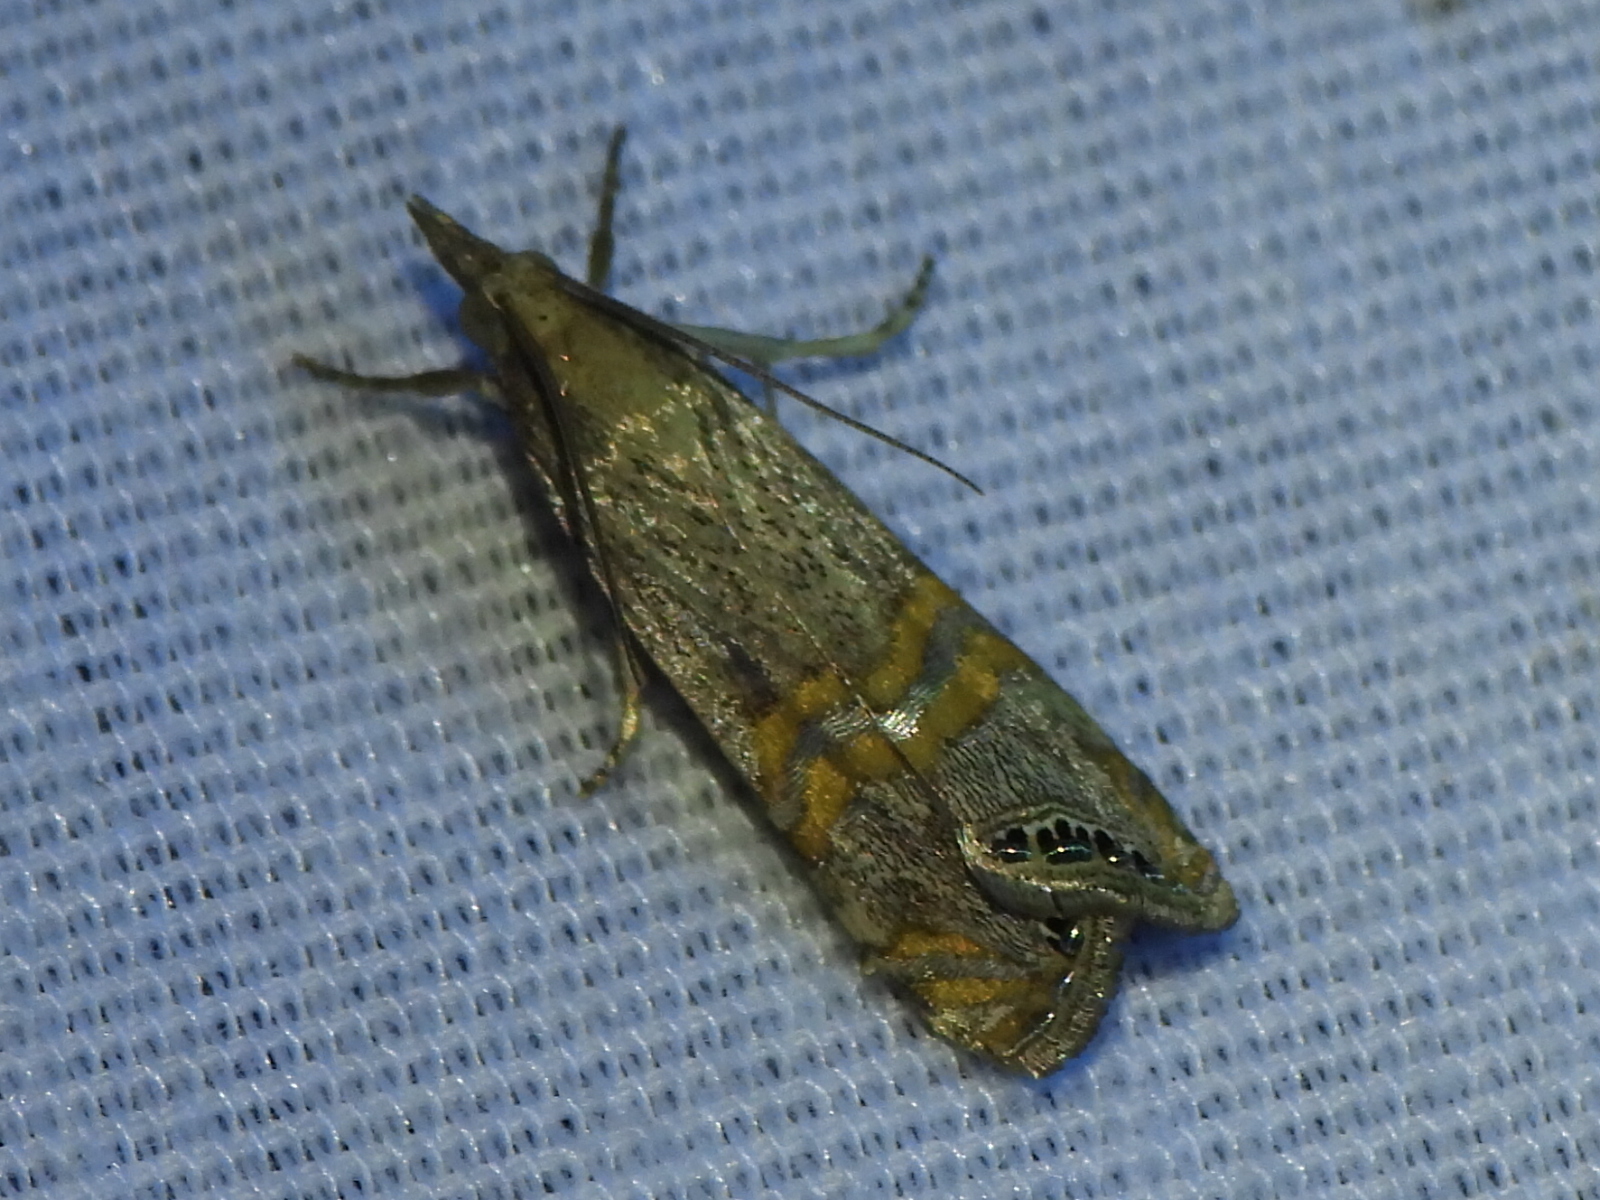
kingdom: Animalia
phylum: Arthropoda
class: Insecta
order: Lepidoptera
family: Crambidae
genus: Euchromius
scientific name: Euchromius ocellea
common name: Necklace veneer moth
